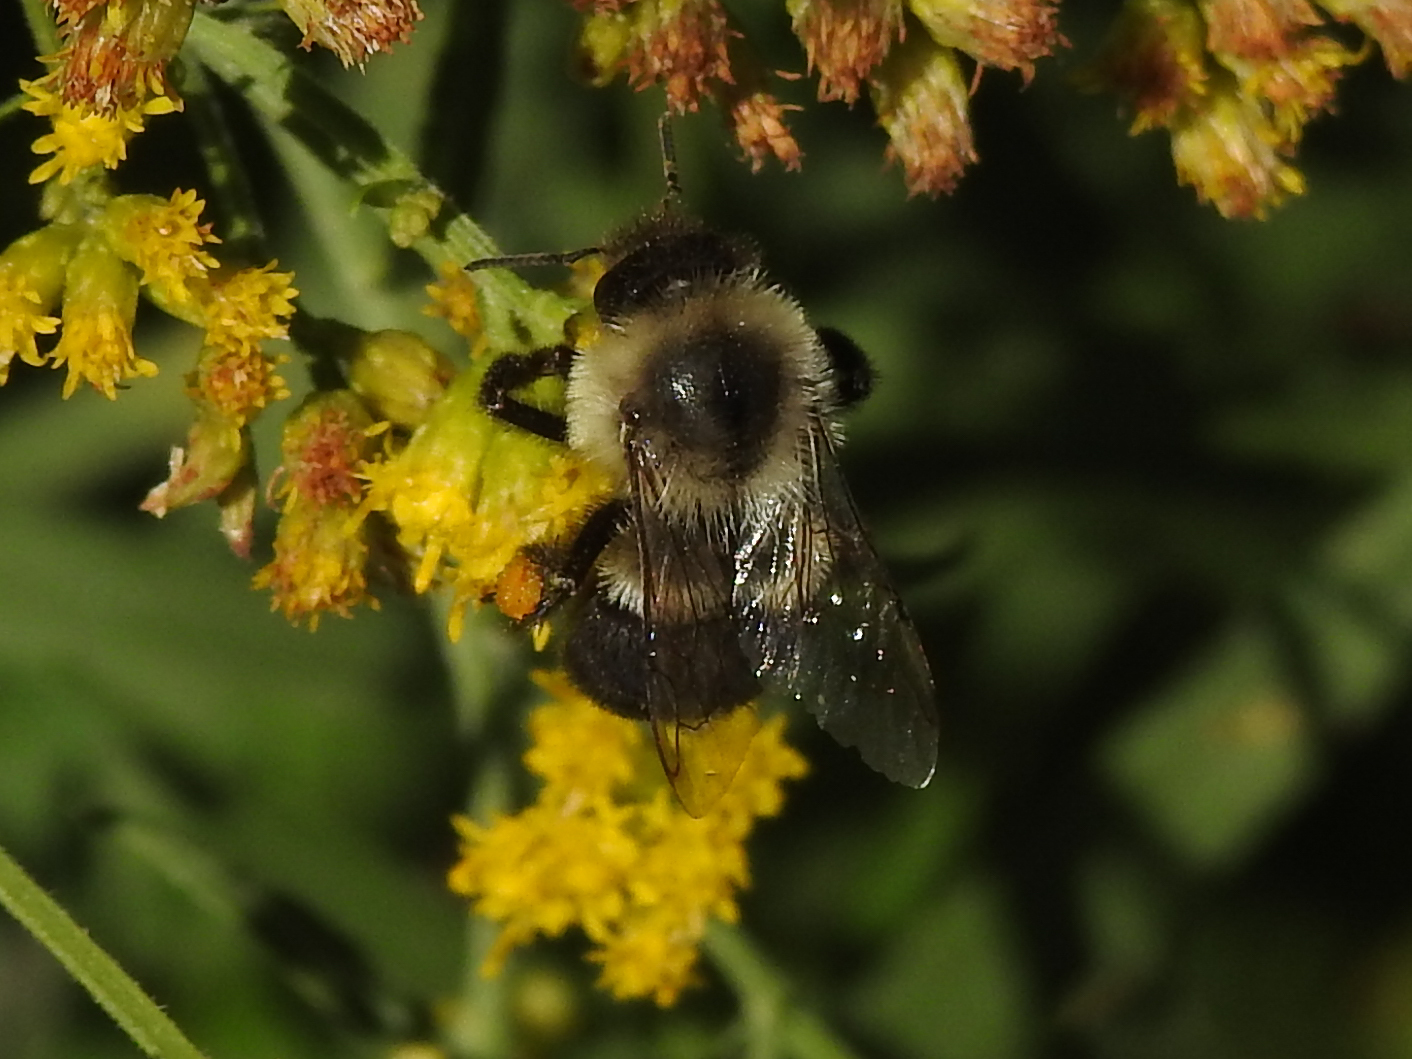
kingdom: Animalia
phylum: Arthropoda
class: Insecta
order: Hymenoptera
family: Apidae
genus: Bombus
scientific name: Bombus impatiens
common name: Common eastern bumble bee
